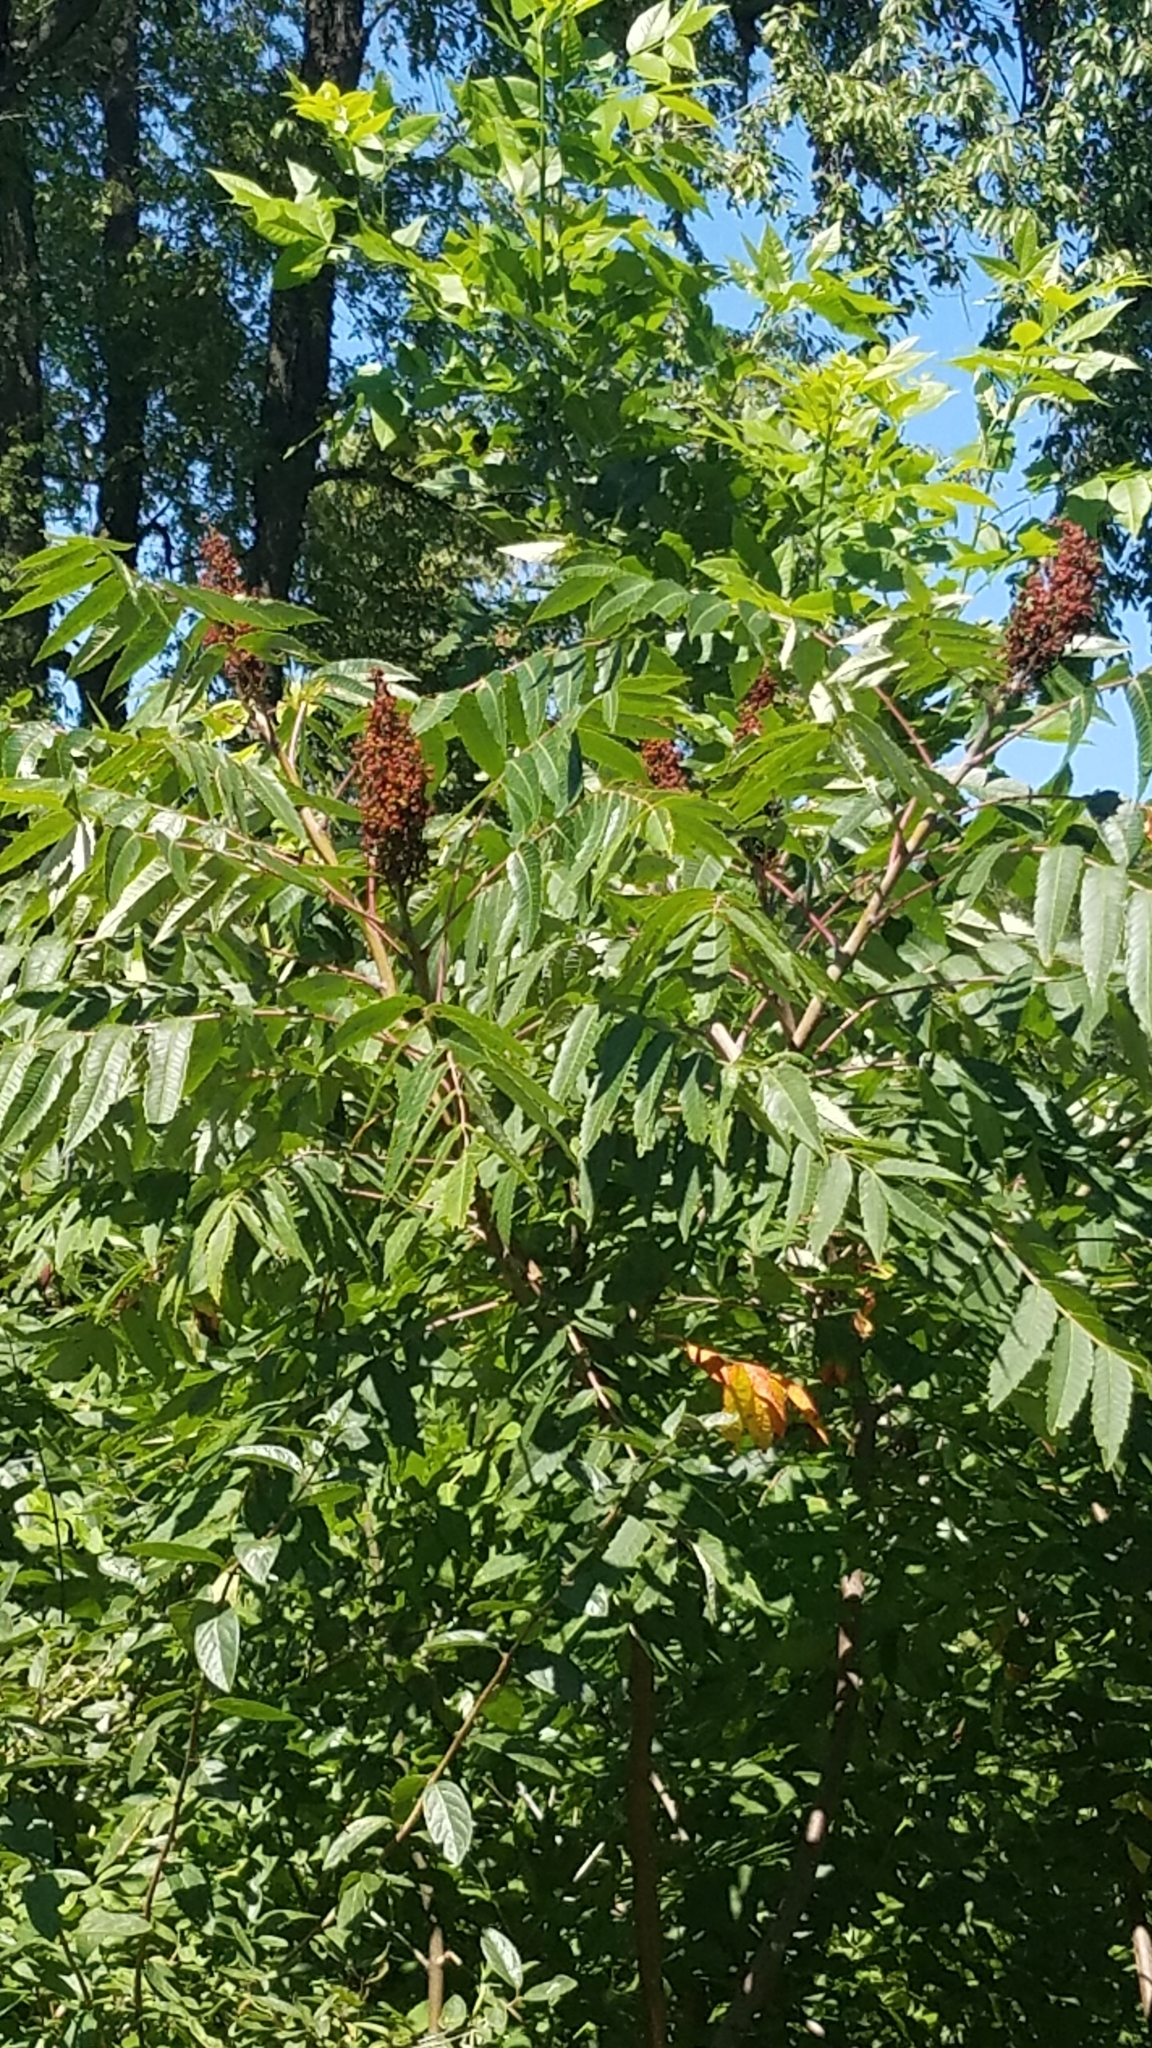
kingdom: Plantae
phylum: Tracheophyta
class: Magnoliopsida
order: Sapindales
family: Anacardiaceae
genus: Rhus
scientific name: Rhus glabra
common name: Scarlet sumac
